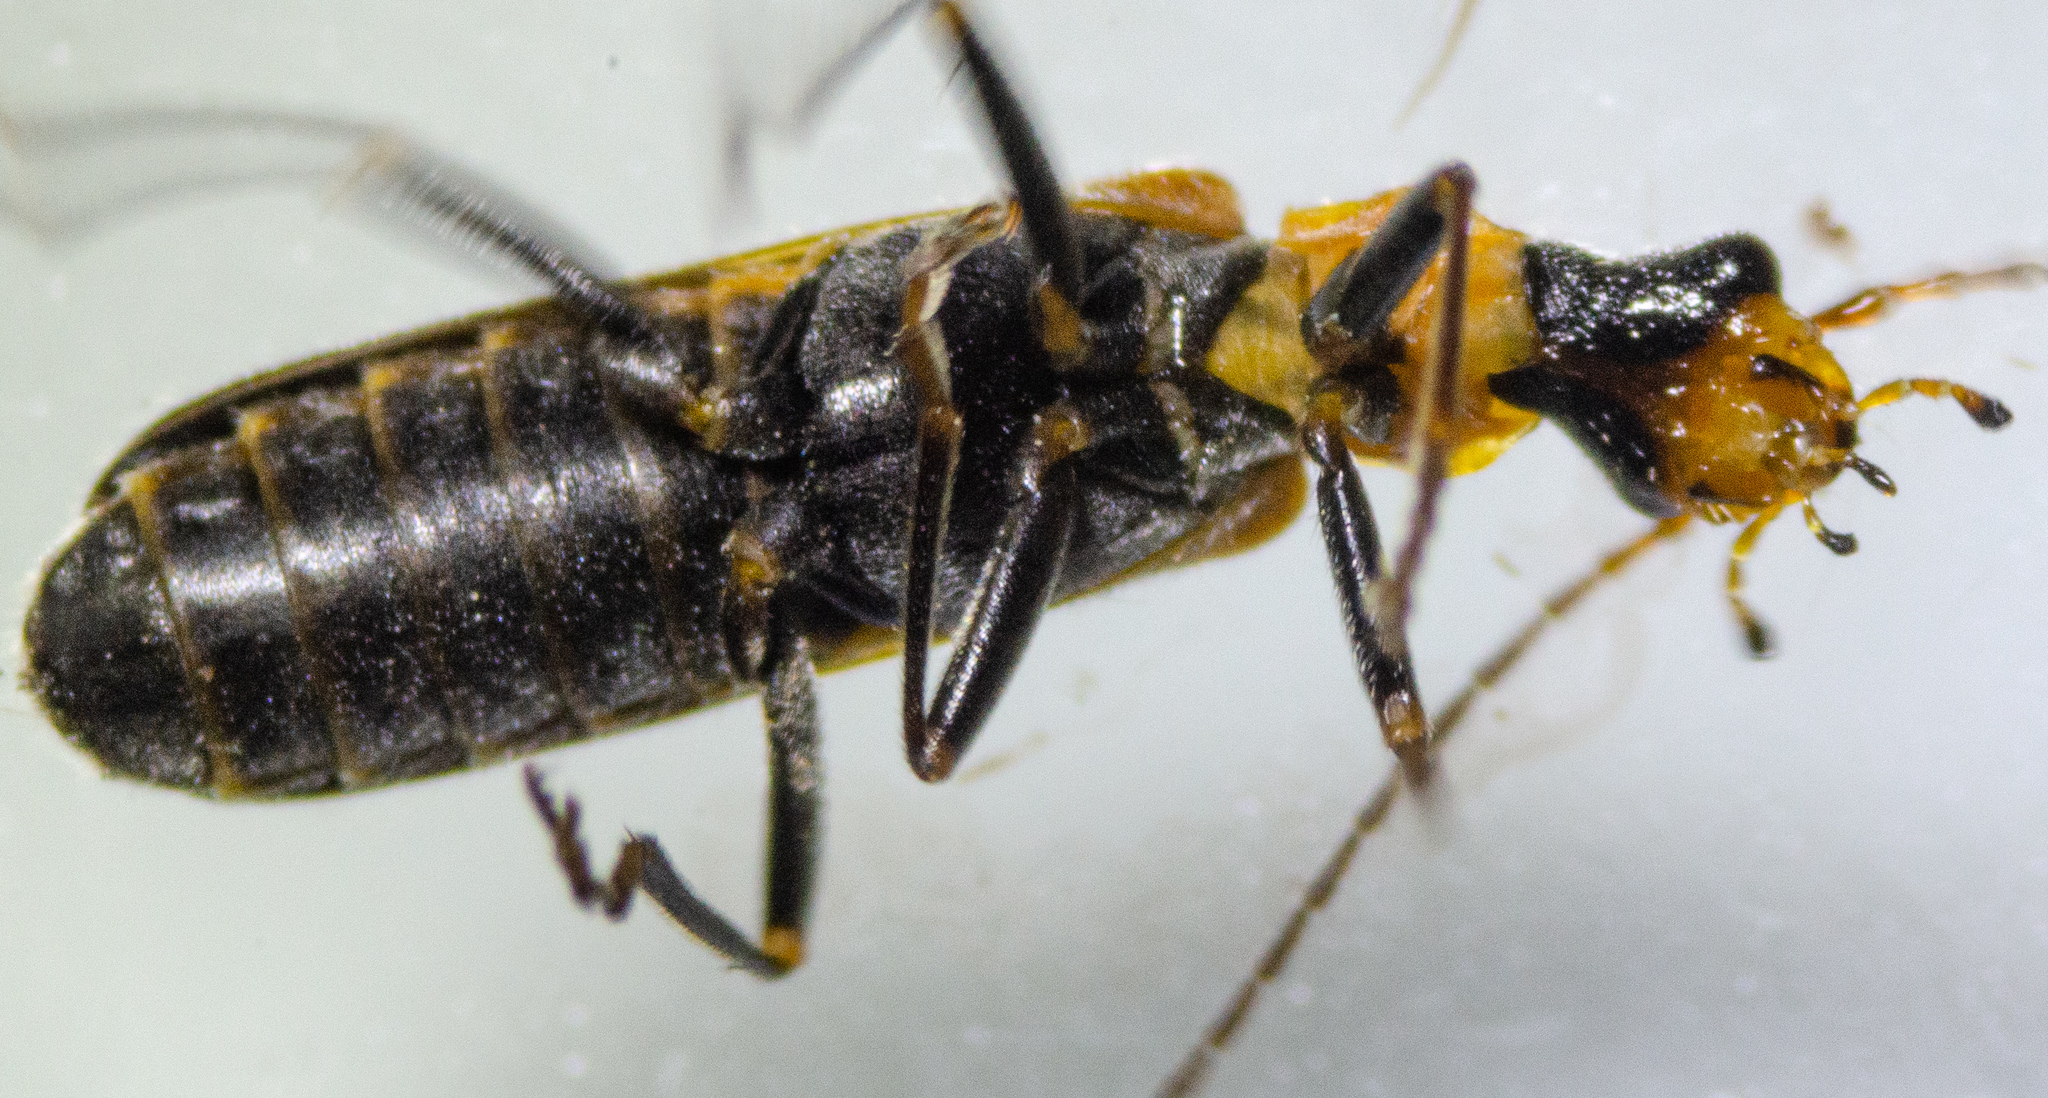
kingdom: Animalia
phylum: Arthropoda
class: Insecta
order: Coleoptera
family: Cantharidae
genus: Dichelotarsus
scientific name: Dichelotarsus cavicollis
